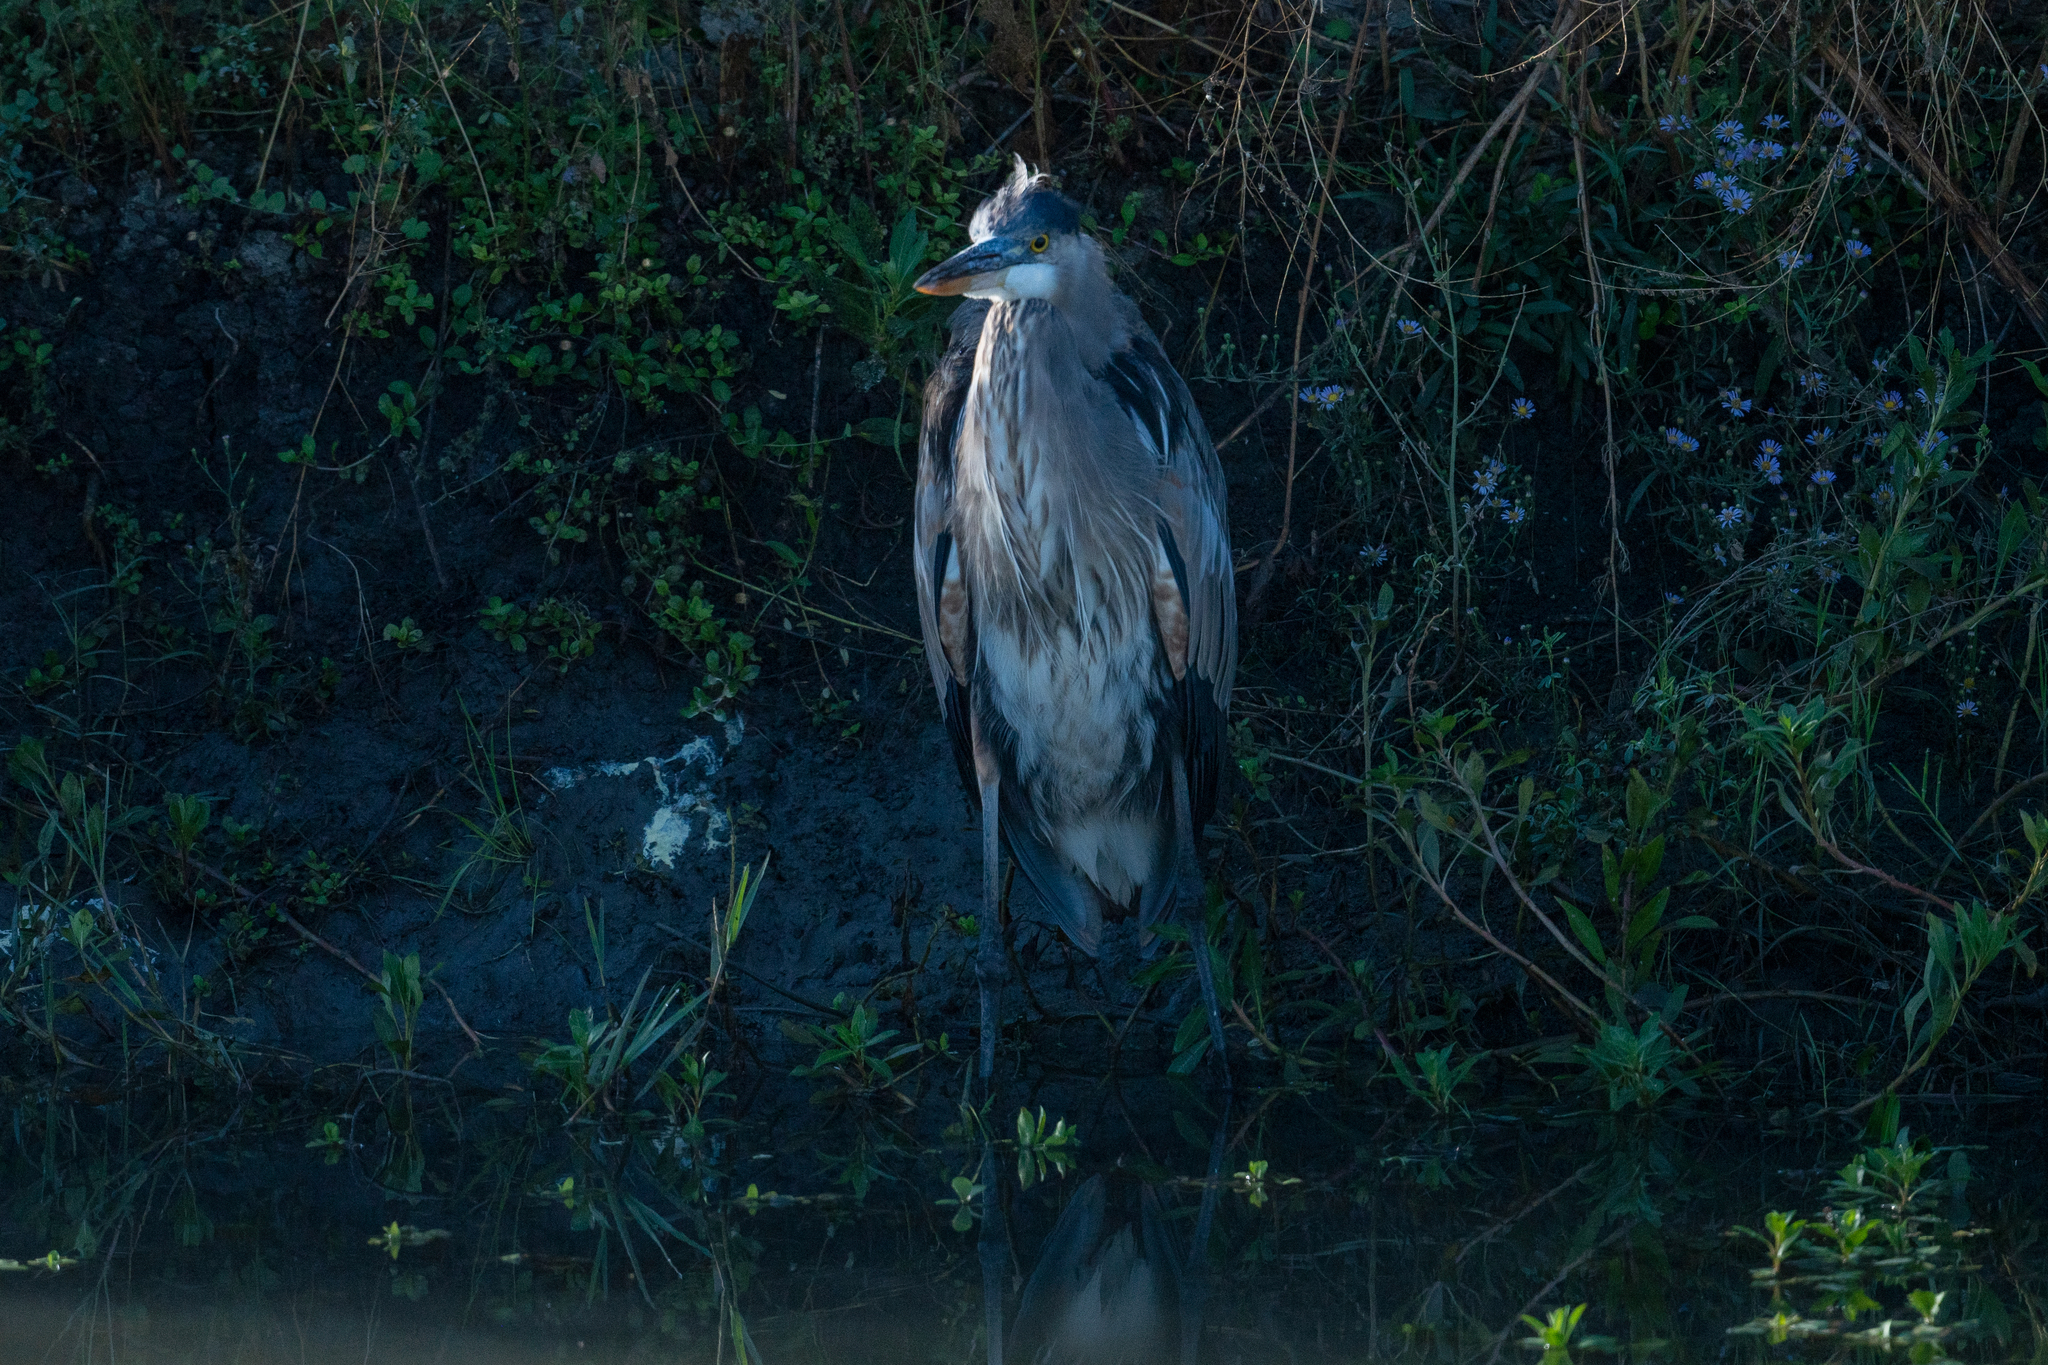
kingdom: Animalia
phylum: Chordata
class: Aves
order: Pelecaniformes
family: Ardeidae
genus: Ardea
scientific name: Ardea herodias
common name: Great blue heron
